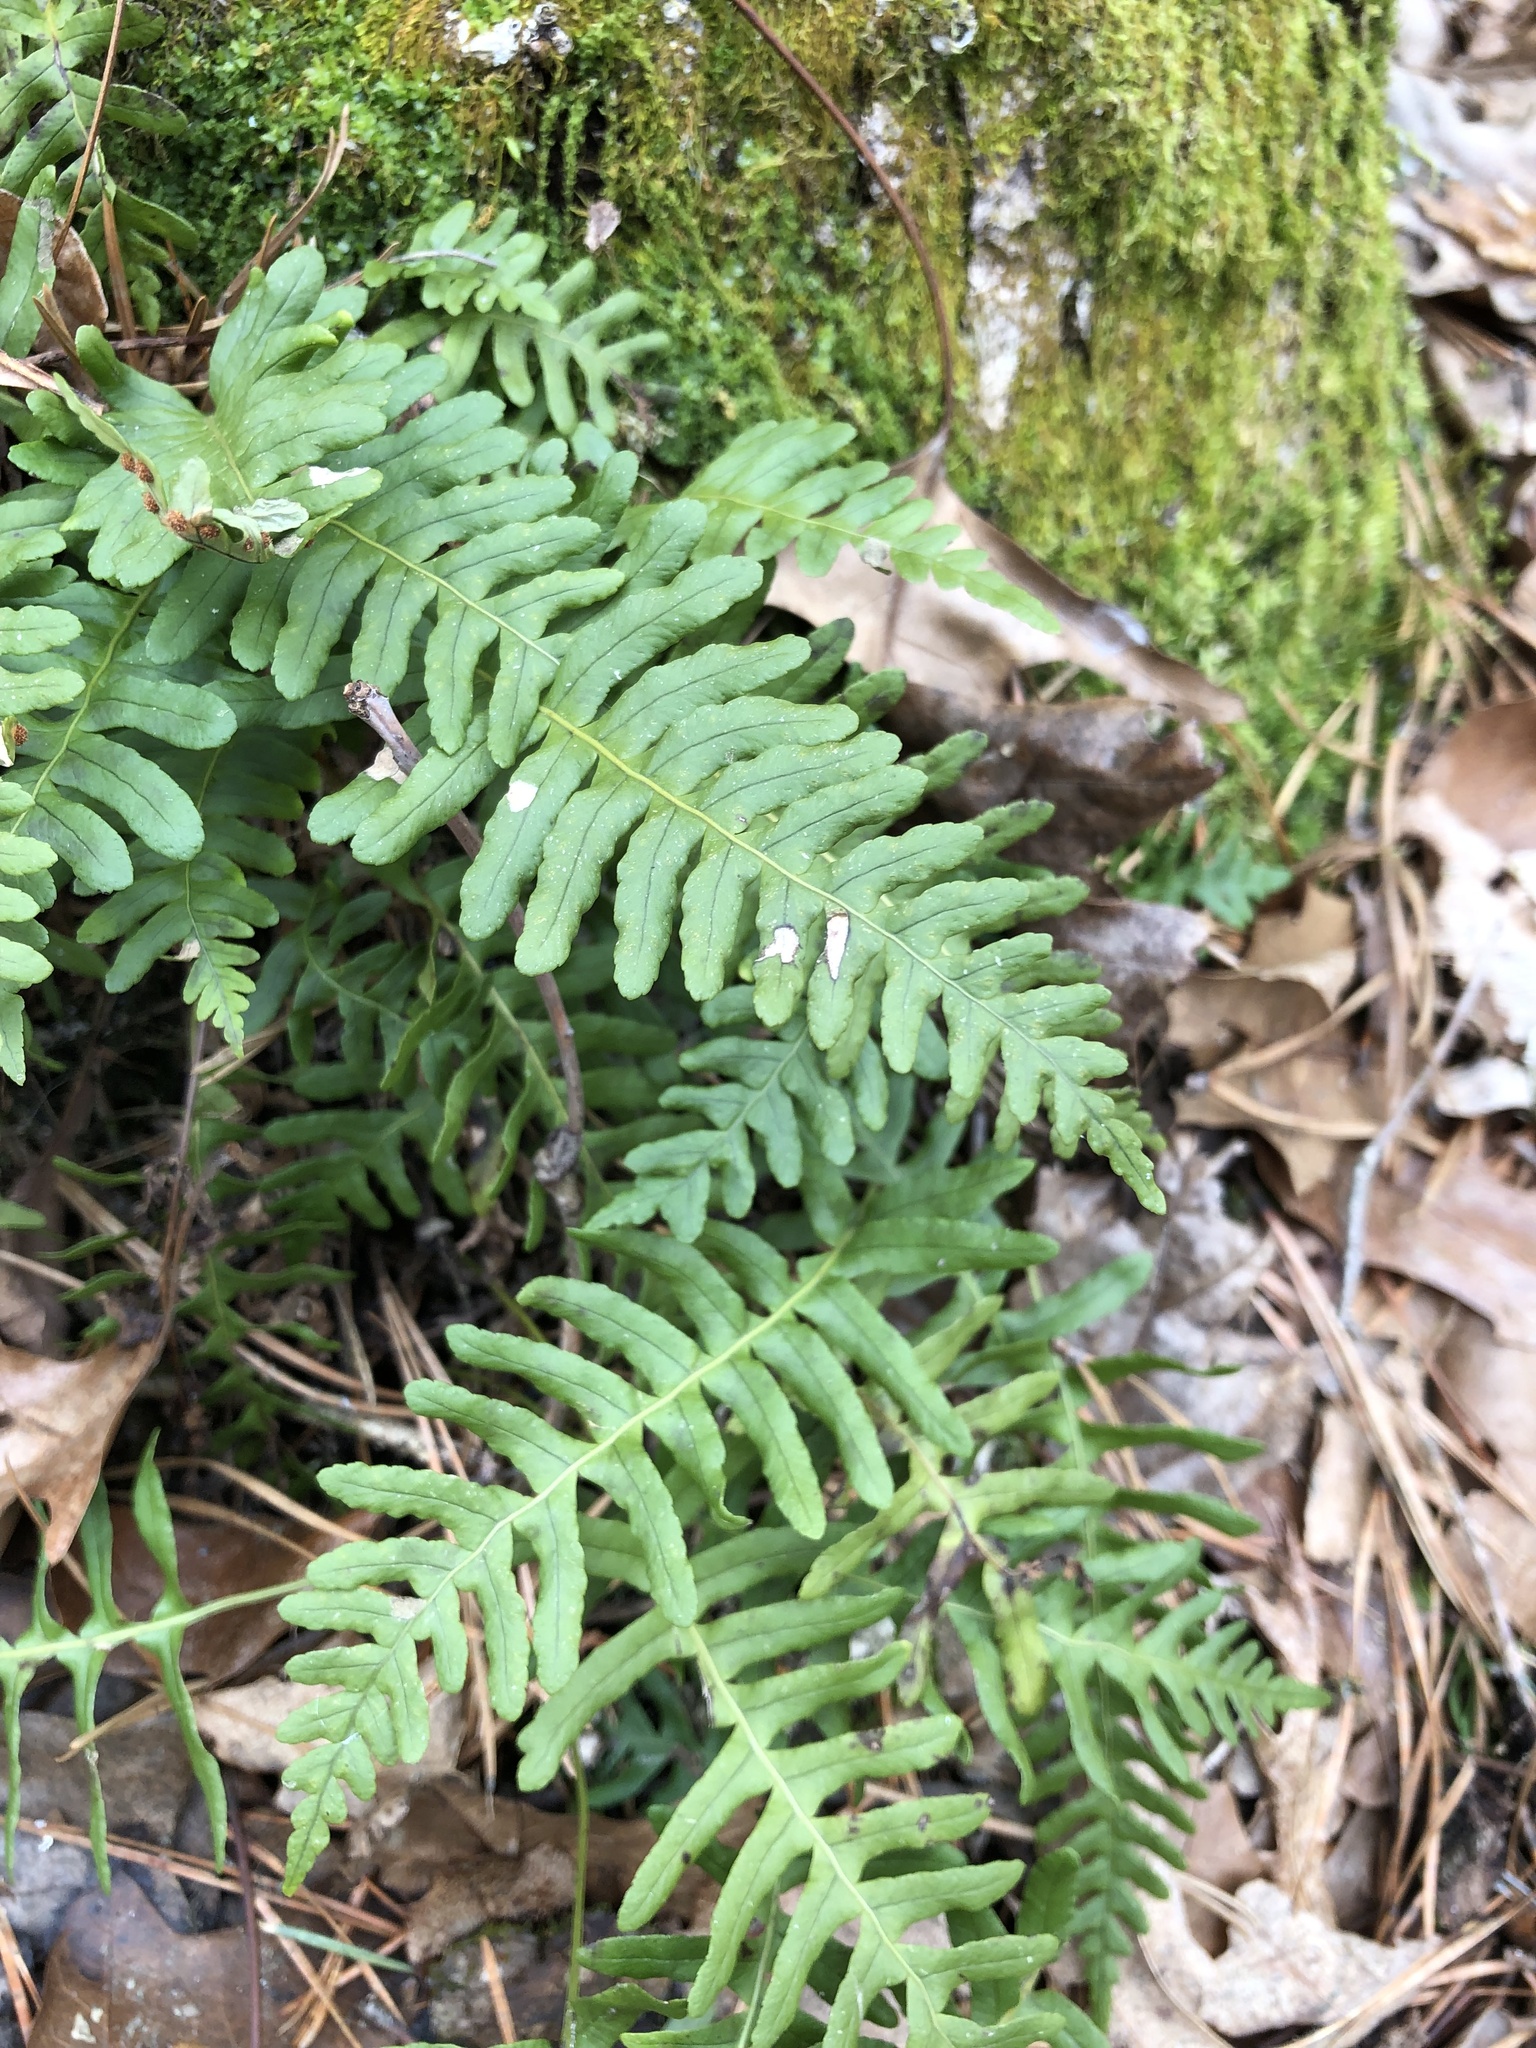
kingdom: Plantae
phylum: Tracheophyta
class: Polypodiopsida
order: Polypodiales
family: Polypodiaceae
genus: Polypodium
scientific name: Polypodium virginianum
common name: American wall fern
